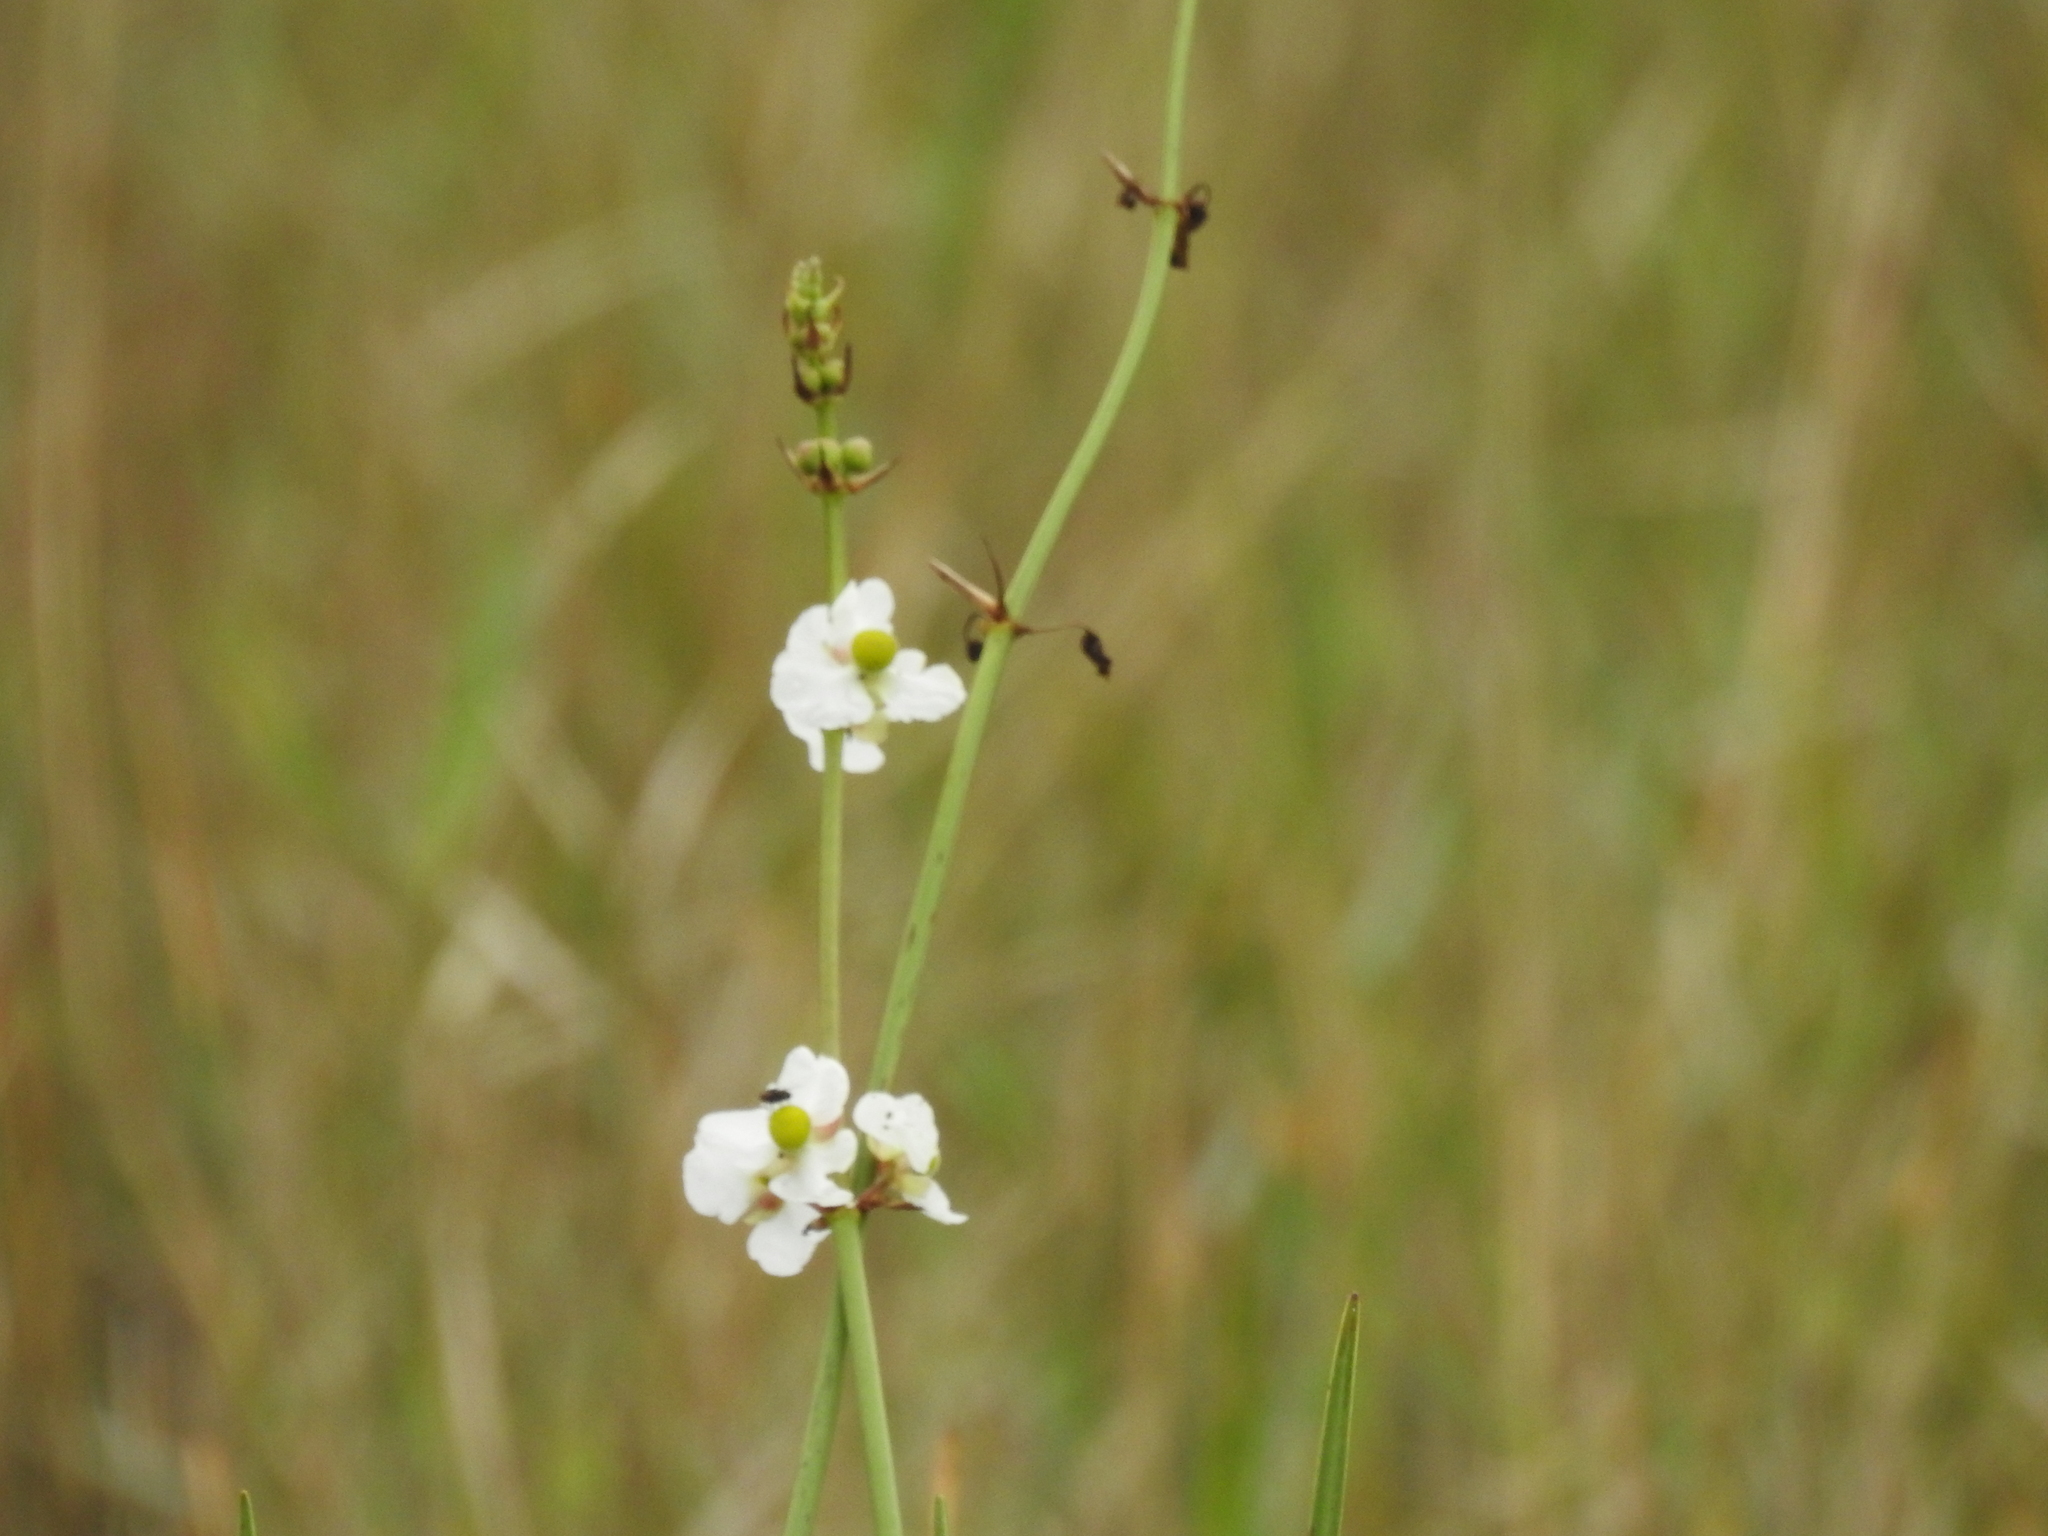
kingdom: Plantae
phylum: Tracheophyta
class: Liliopsida
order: Alismatales
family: Alismataceae
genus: Sagittaria
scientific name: Sagittaria lancifolia
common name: Lance-leaf arrowhead
